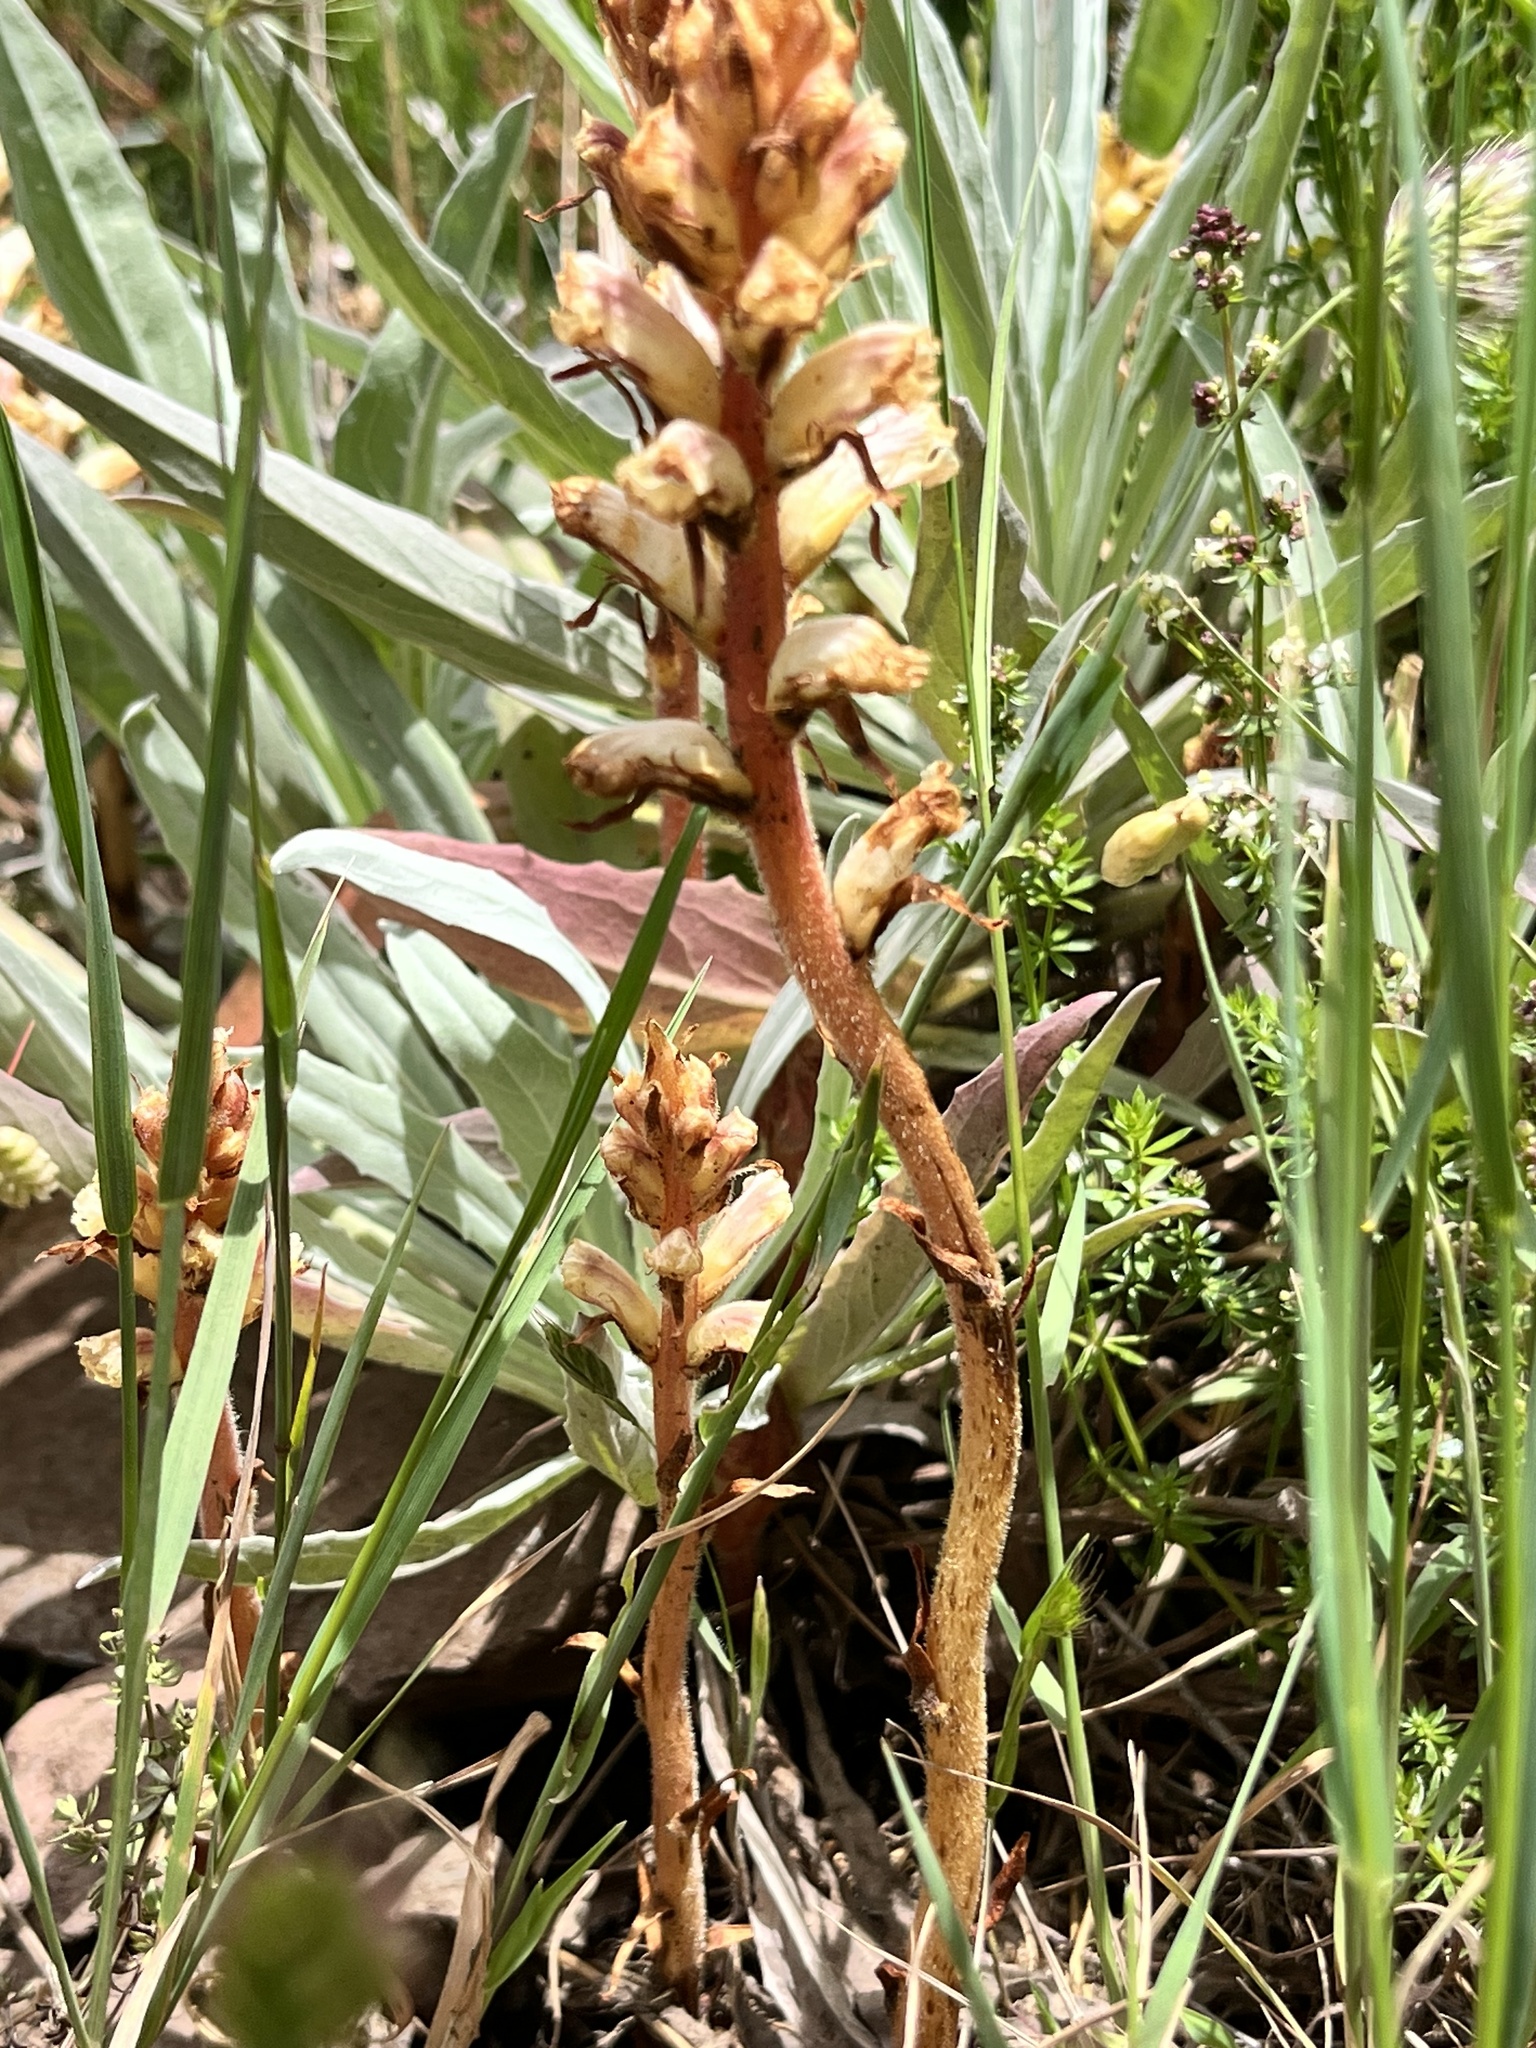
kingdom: Plantae
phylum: Tracheophyta
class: Magnoliopsida
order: Lamiales
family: Orobanchaceae
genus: Orobanche
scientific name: Orobanche minor
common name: Common broomrape
